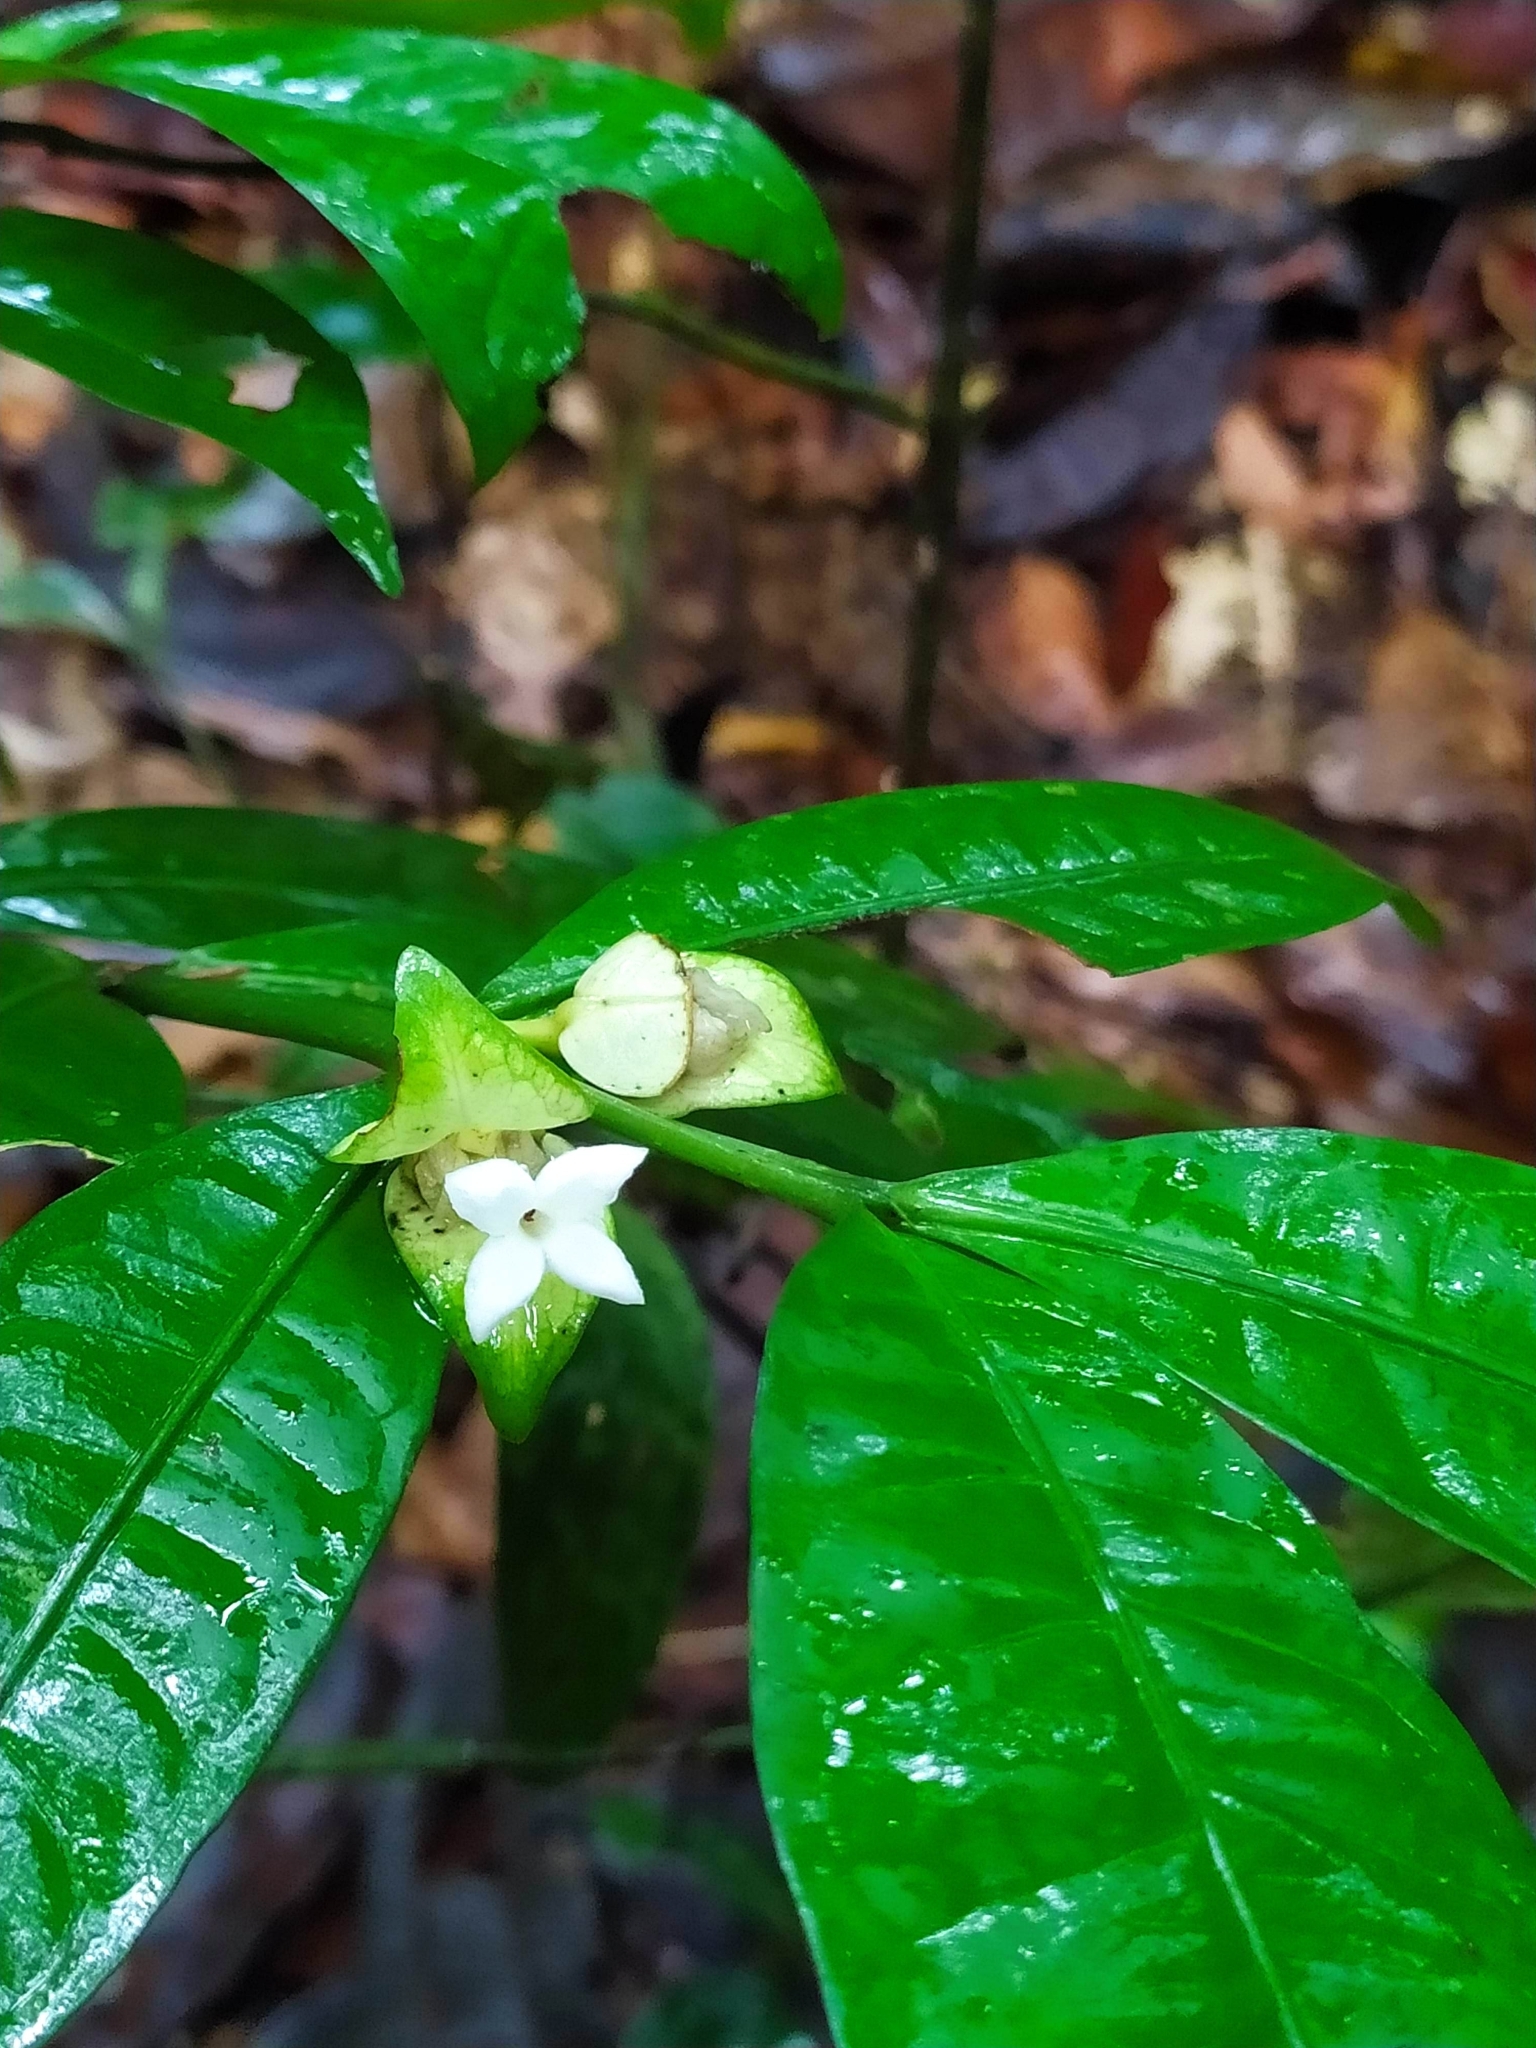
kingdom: Plantae
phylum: Tracheophyta
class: Magnoliopsida
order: Gentianales
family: Rubiaceae
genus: Faramea
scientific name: Faramea guianensis
